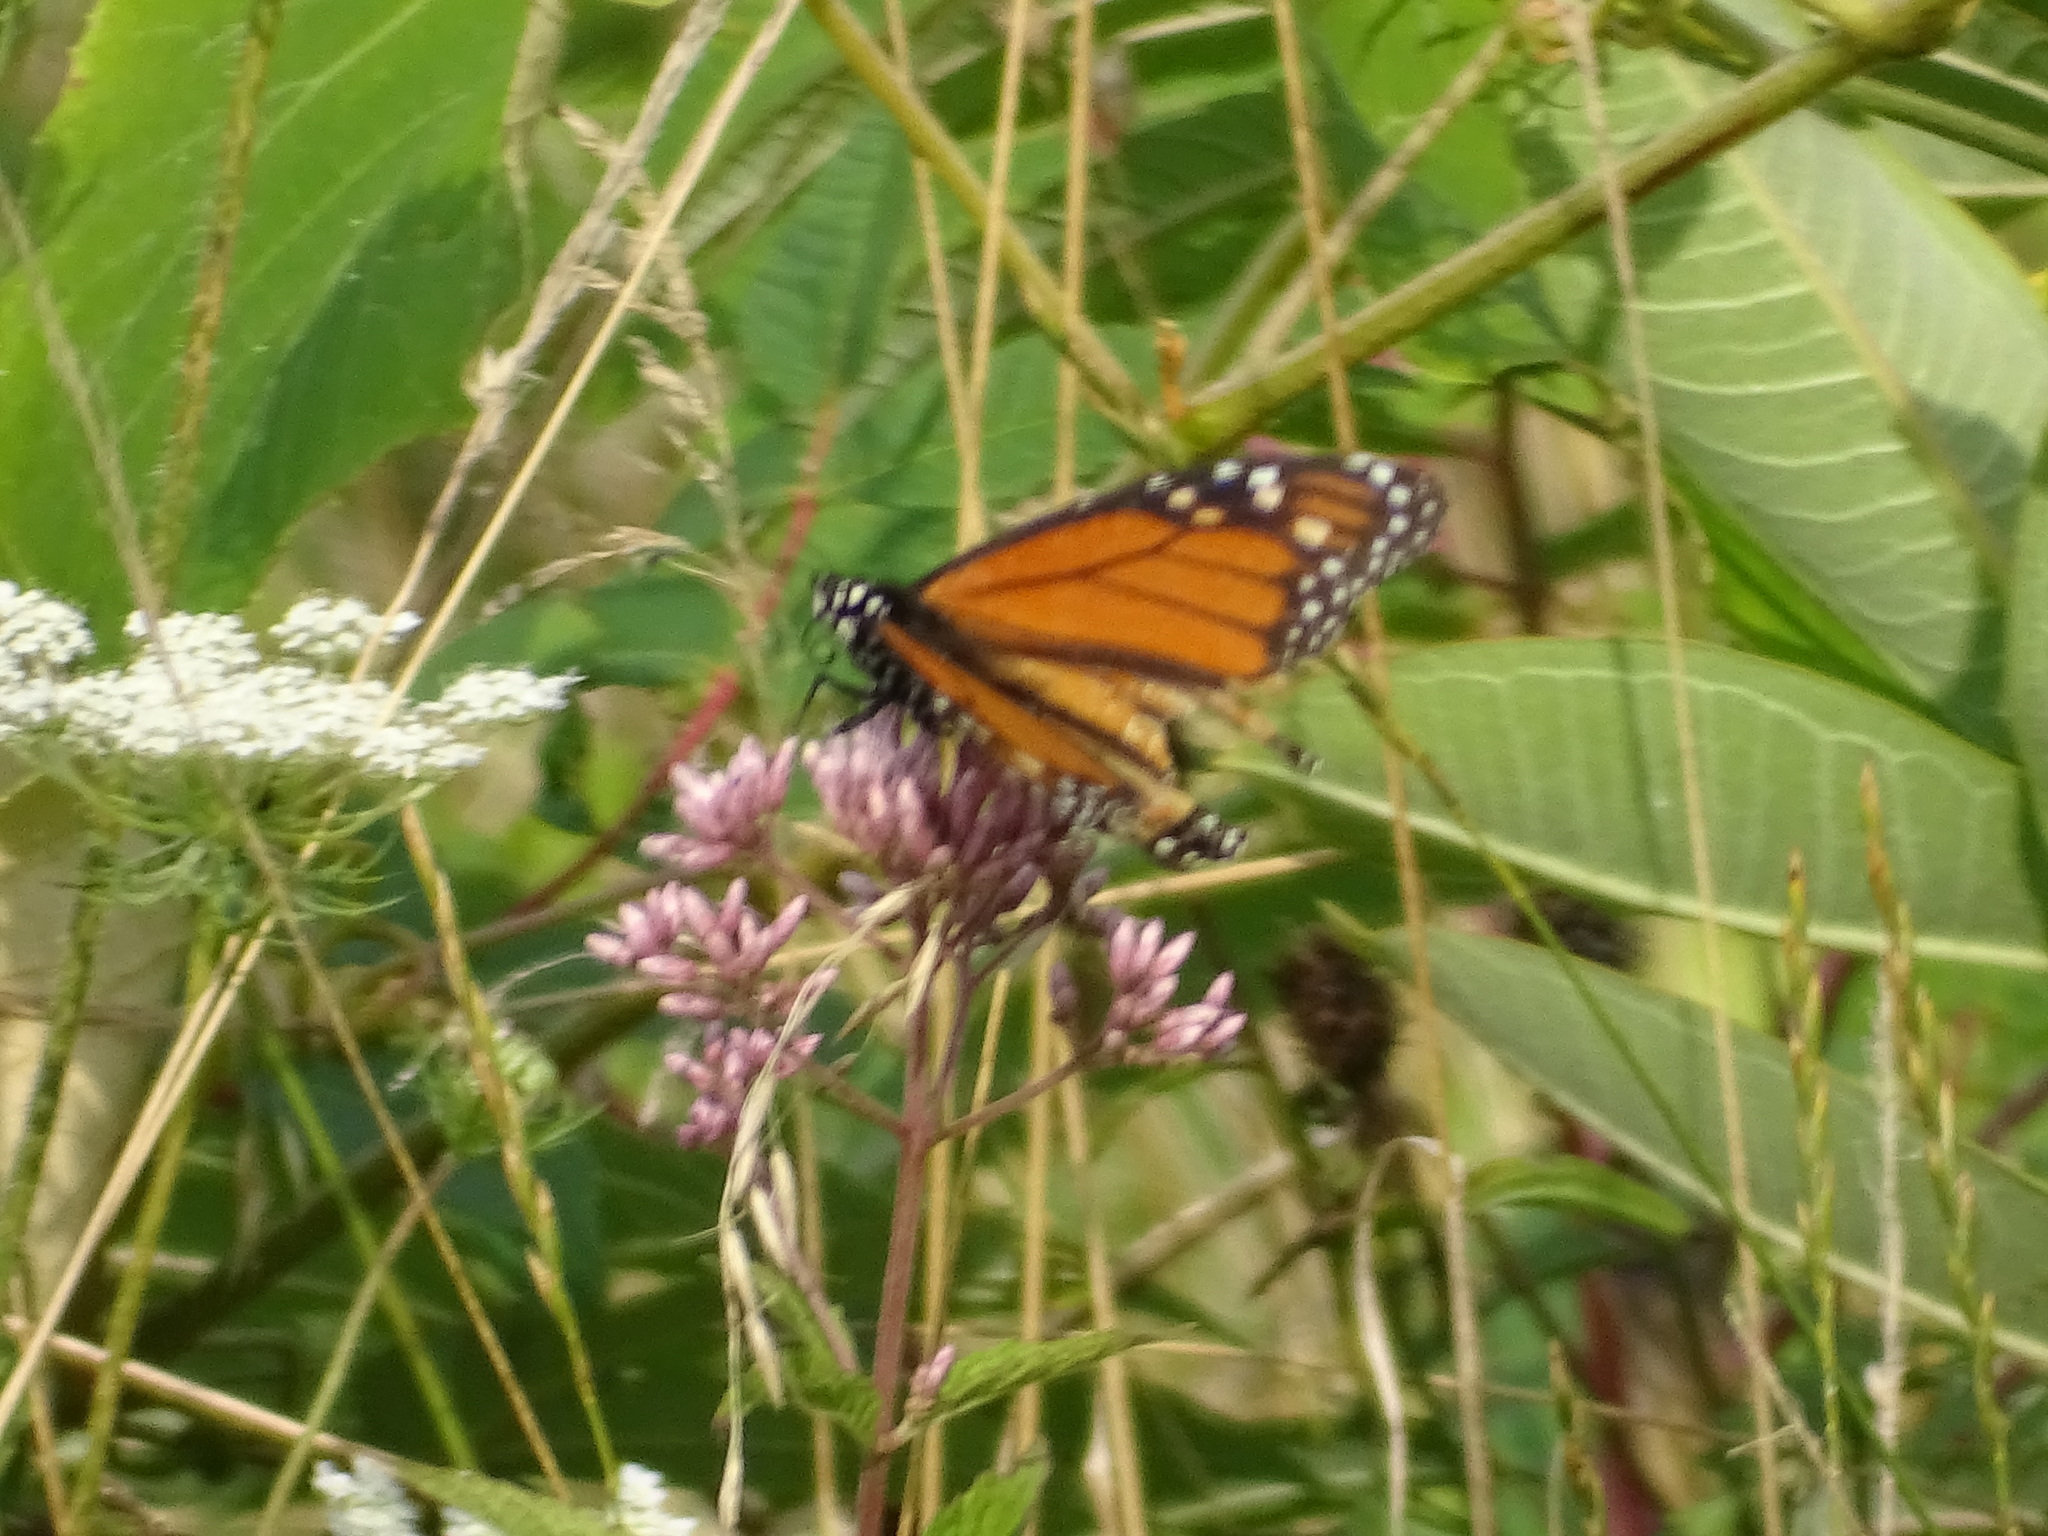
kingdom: Animalia
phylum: Arthropoda
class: Insecta
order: Lepidoptera
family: Nymphalidae
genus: Danaus
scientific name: Danaus plexippus
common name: Monarch
